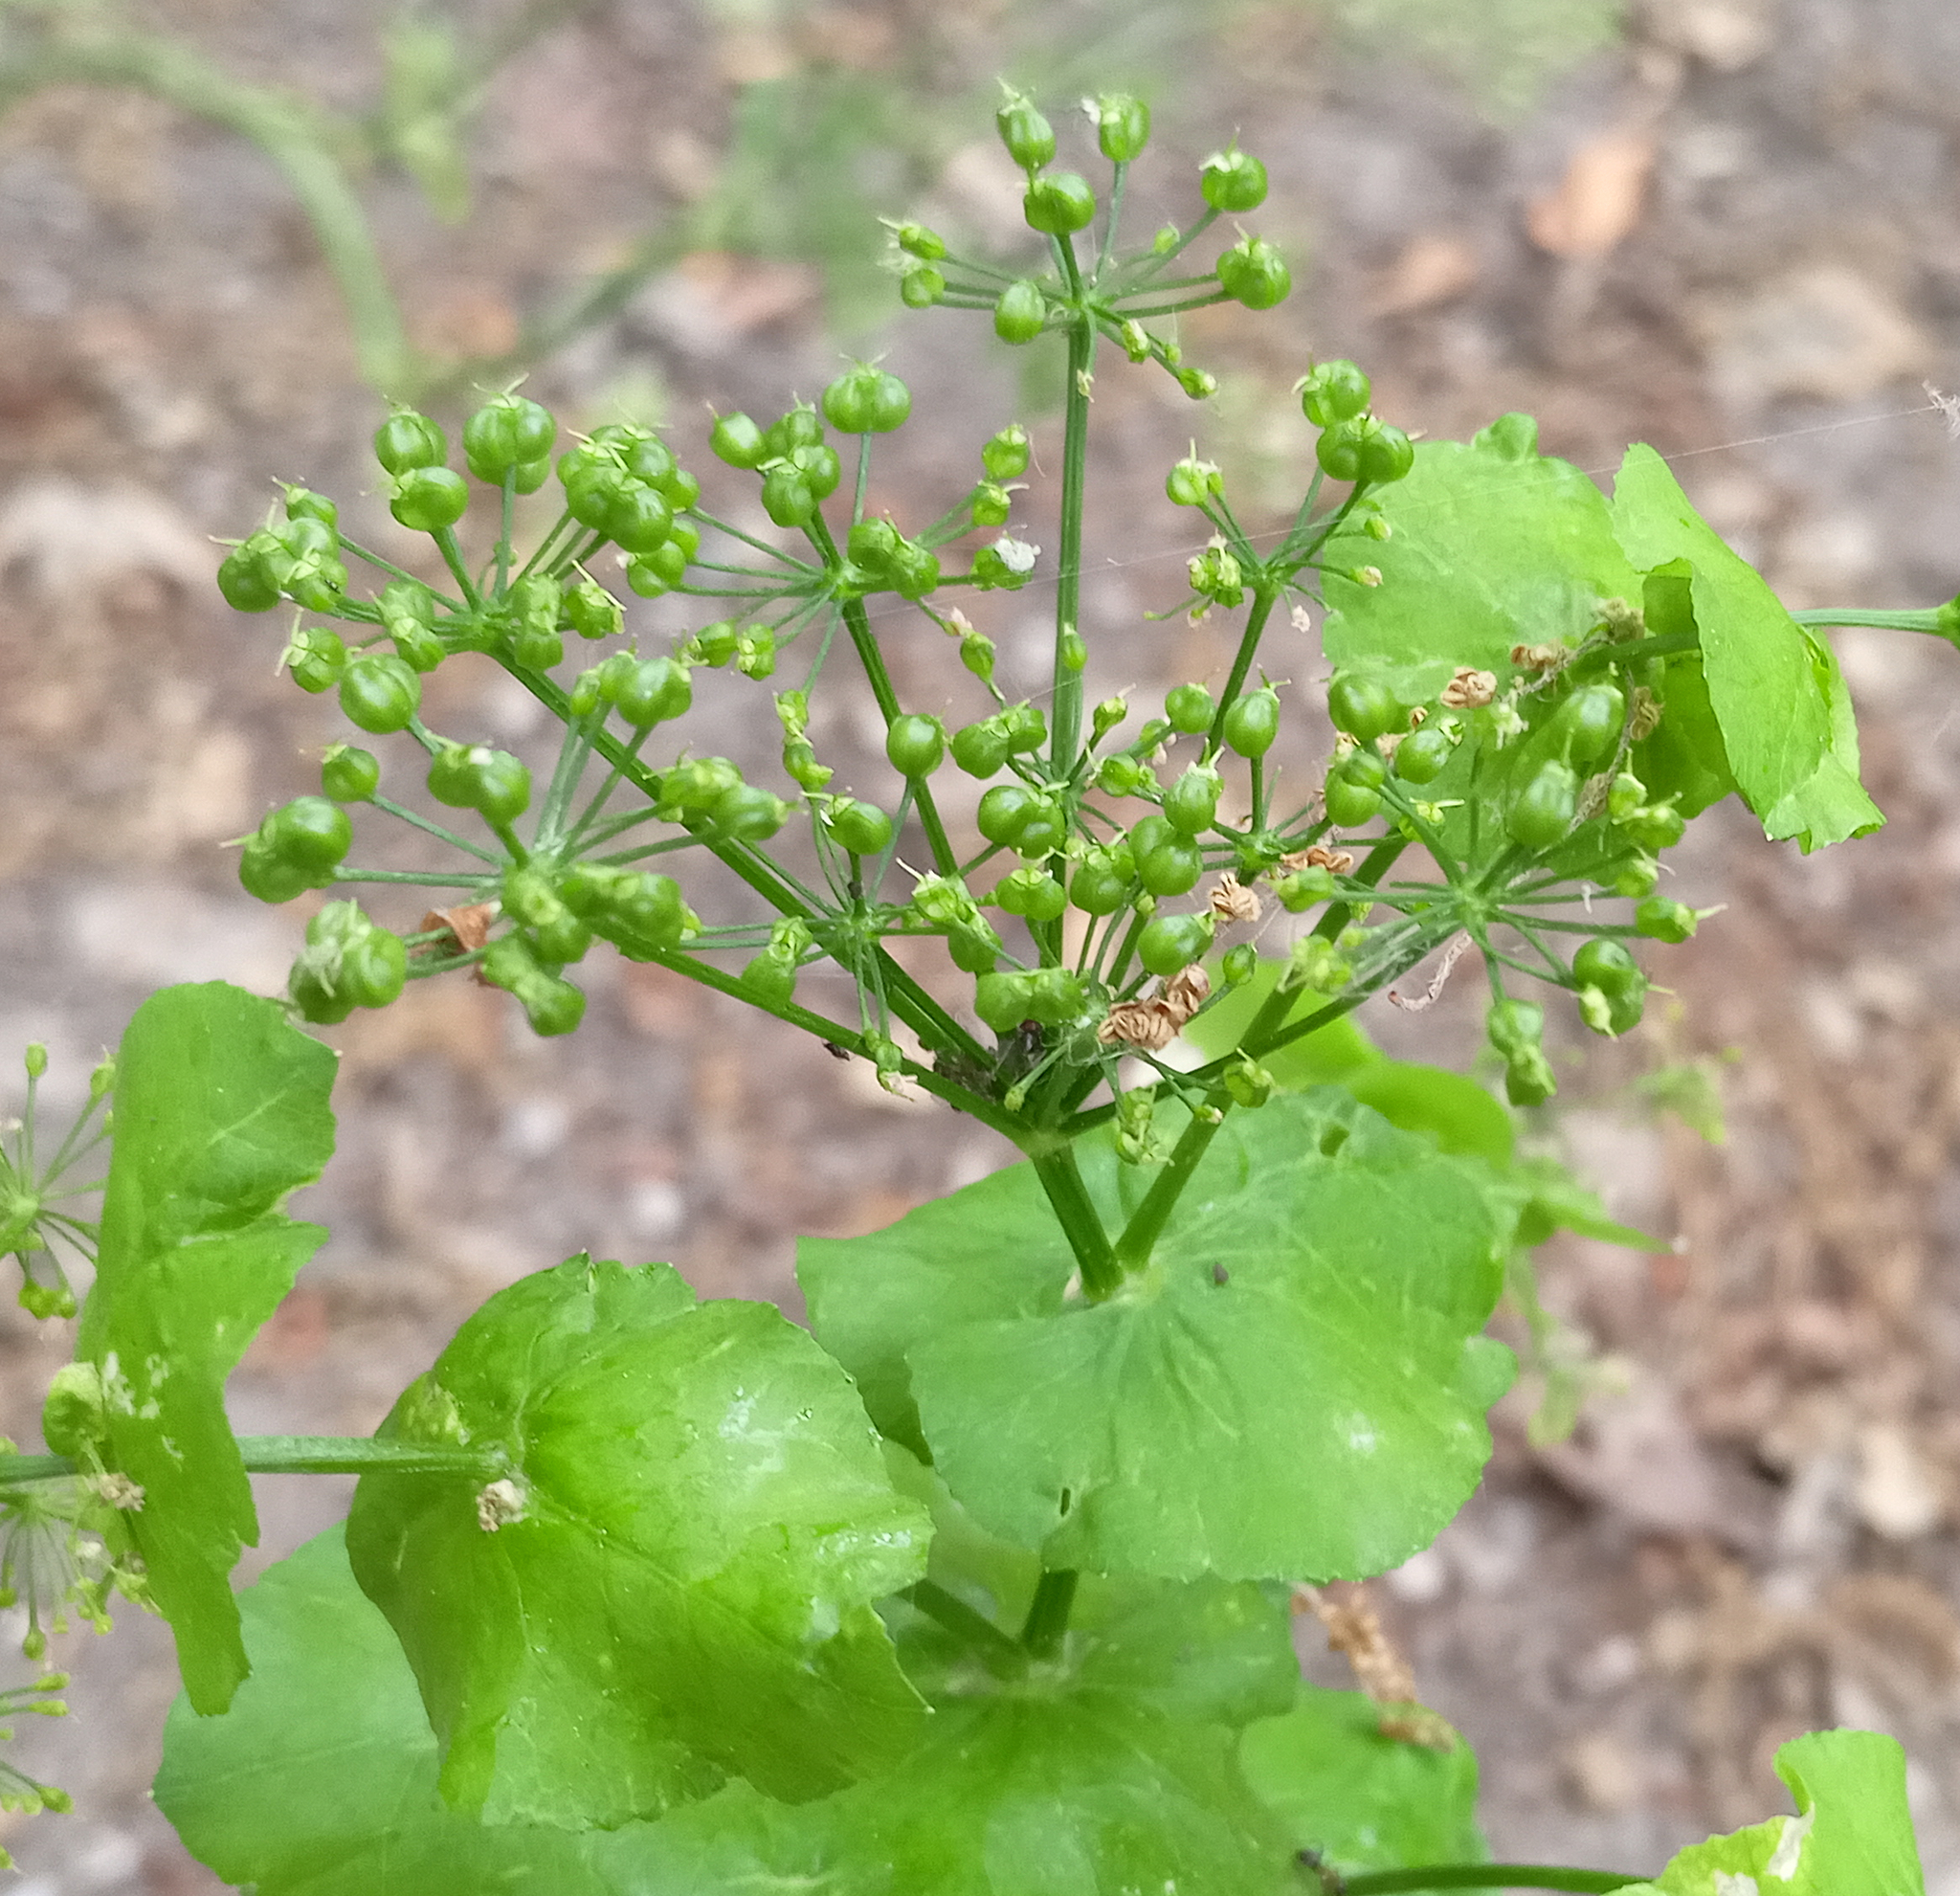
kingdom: Plantae
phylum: Tracheophyta
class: Magnoliopsida
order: Apiales
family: Apiaceae
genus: Smyrnium
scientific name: Smyrnium perfoliatum
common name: Perfoliate alexanders
